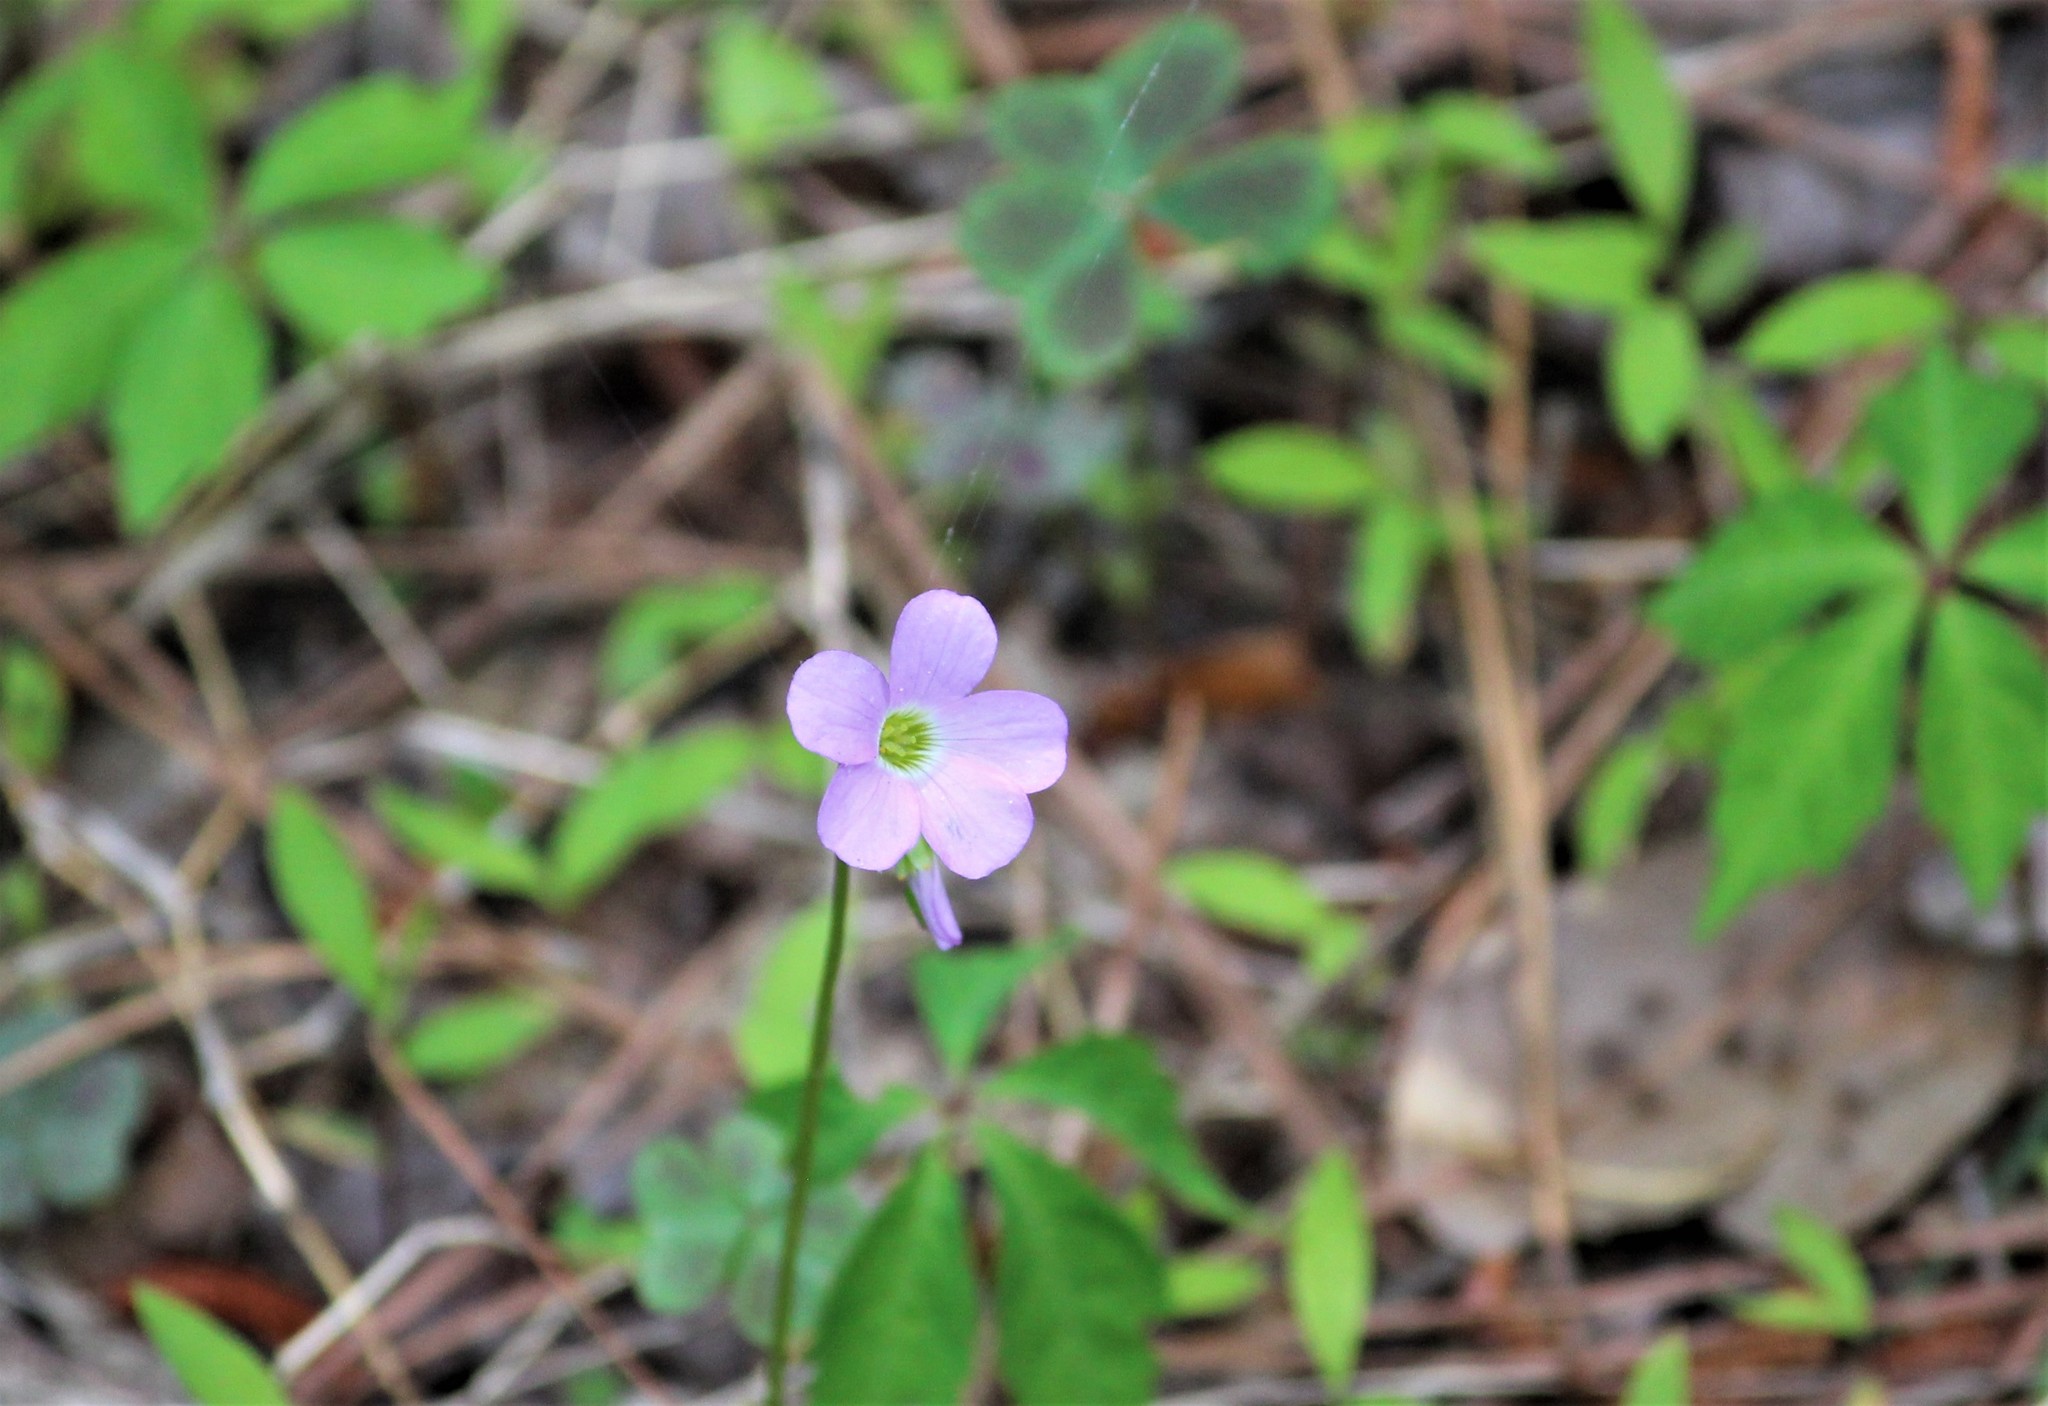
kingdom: Plantae
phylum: Tracheophyta
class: Magnoliopsida
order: Oxalidales
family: Oxalidaceae
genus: Oxalis
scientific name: Oxalis violacea
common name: Violet wood-sorrel
